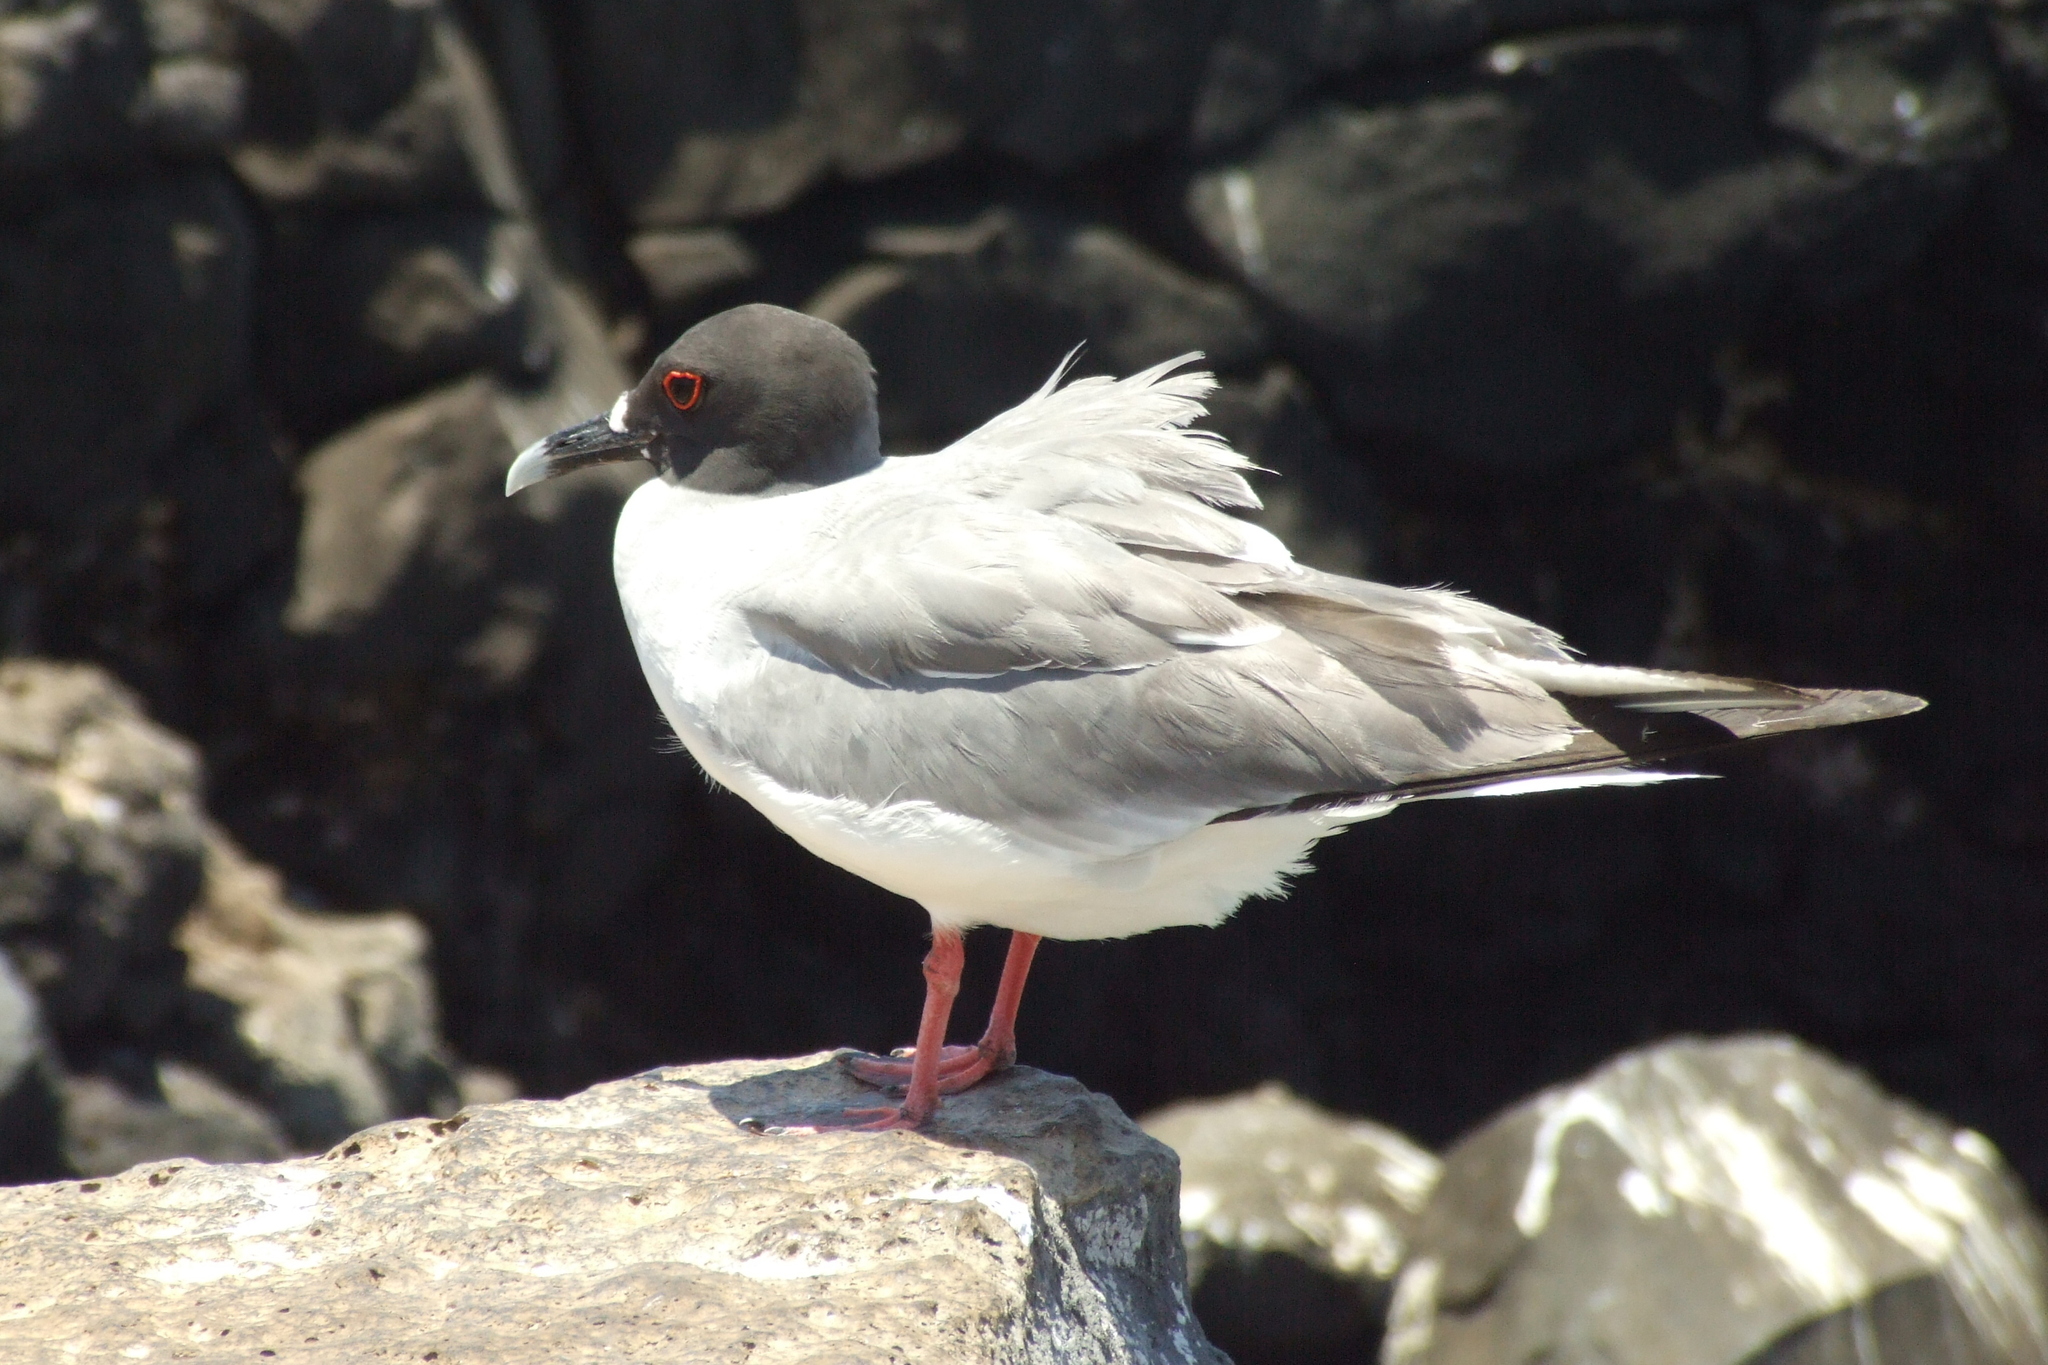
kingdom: Animalia
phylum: Chordata
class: Aves
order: Charadriiformes
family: Laridae
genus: Creagrus
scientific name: Creagrus furcatus
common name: Swallow-tailed gull
